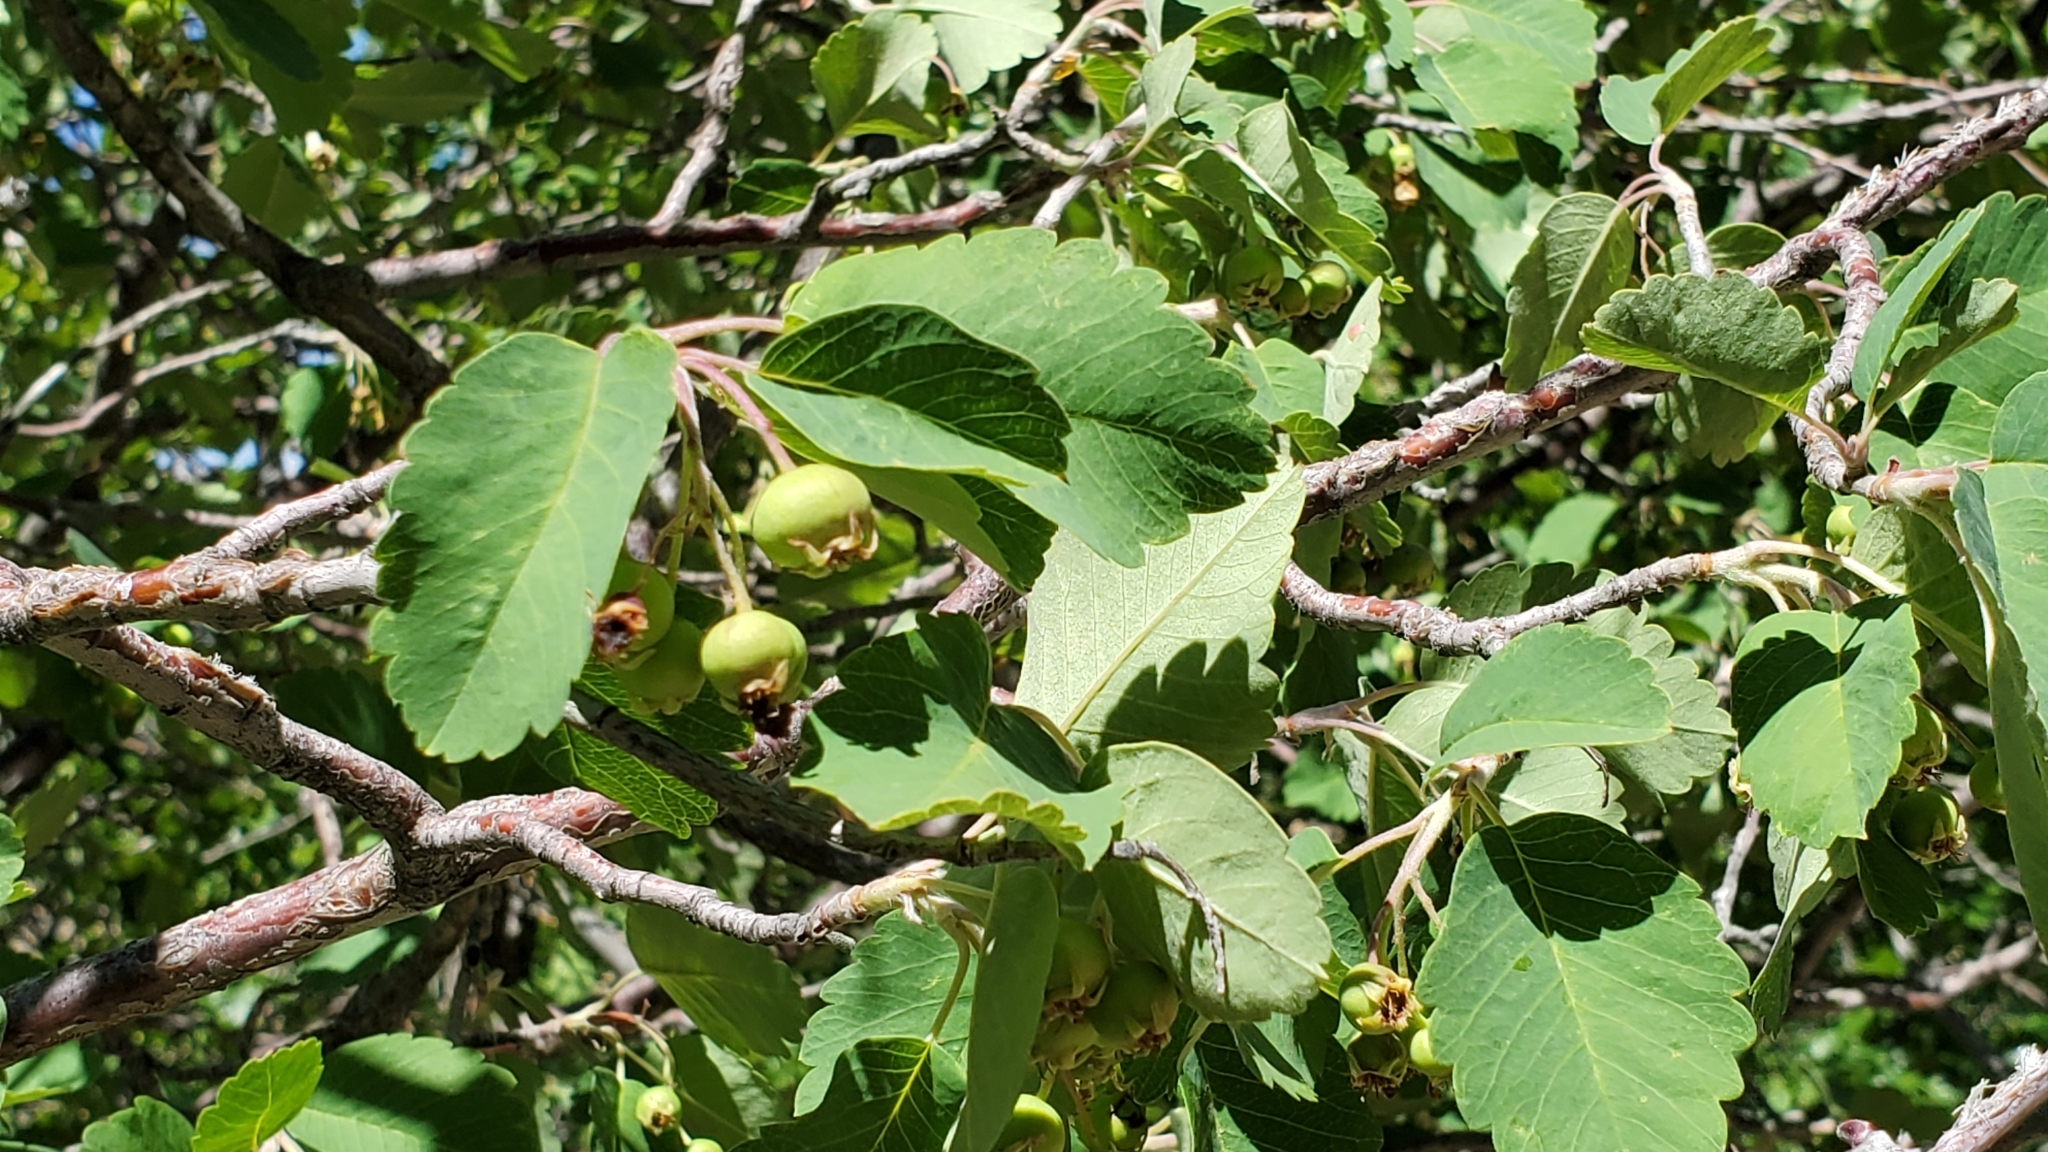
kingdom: Plantae
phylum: Tracheophyta
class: Magnoliopsida
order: Rosales
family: Rosaceae
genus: Amelanchier
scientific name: Amelanchier utahensis
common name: Utah serviceberry
